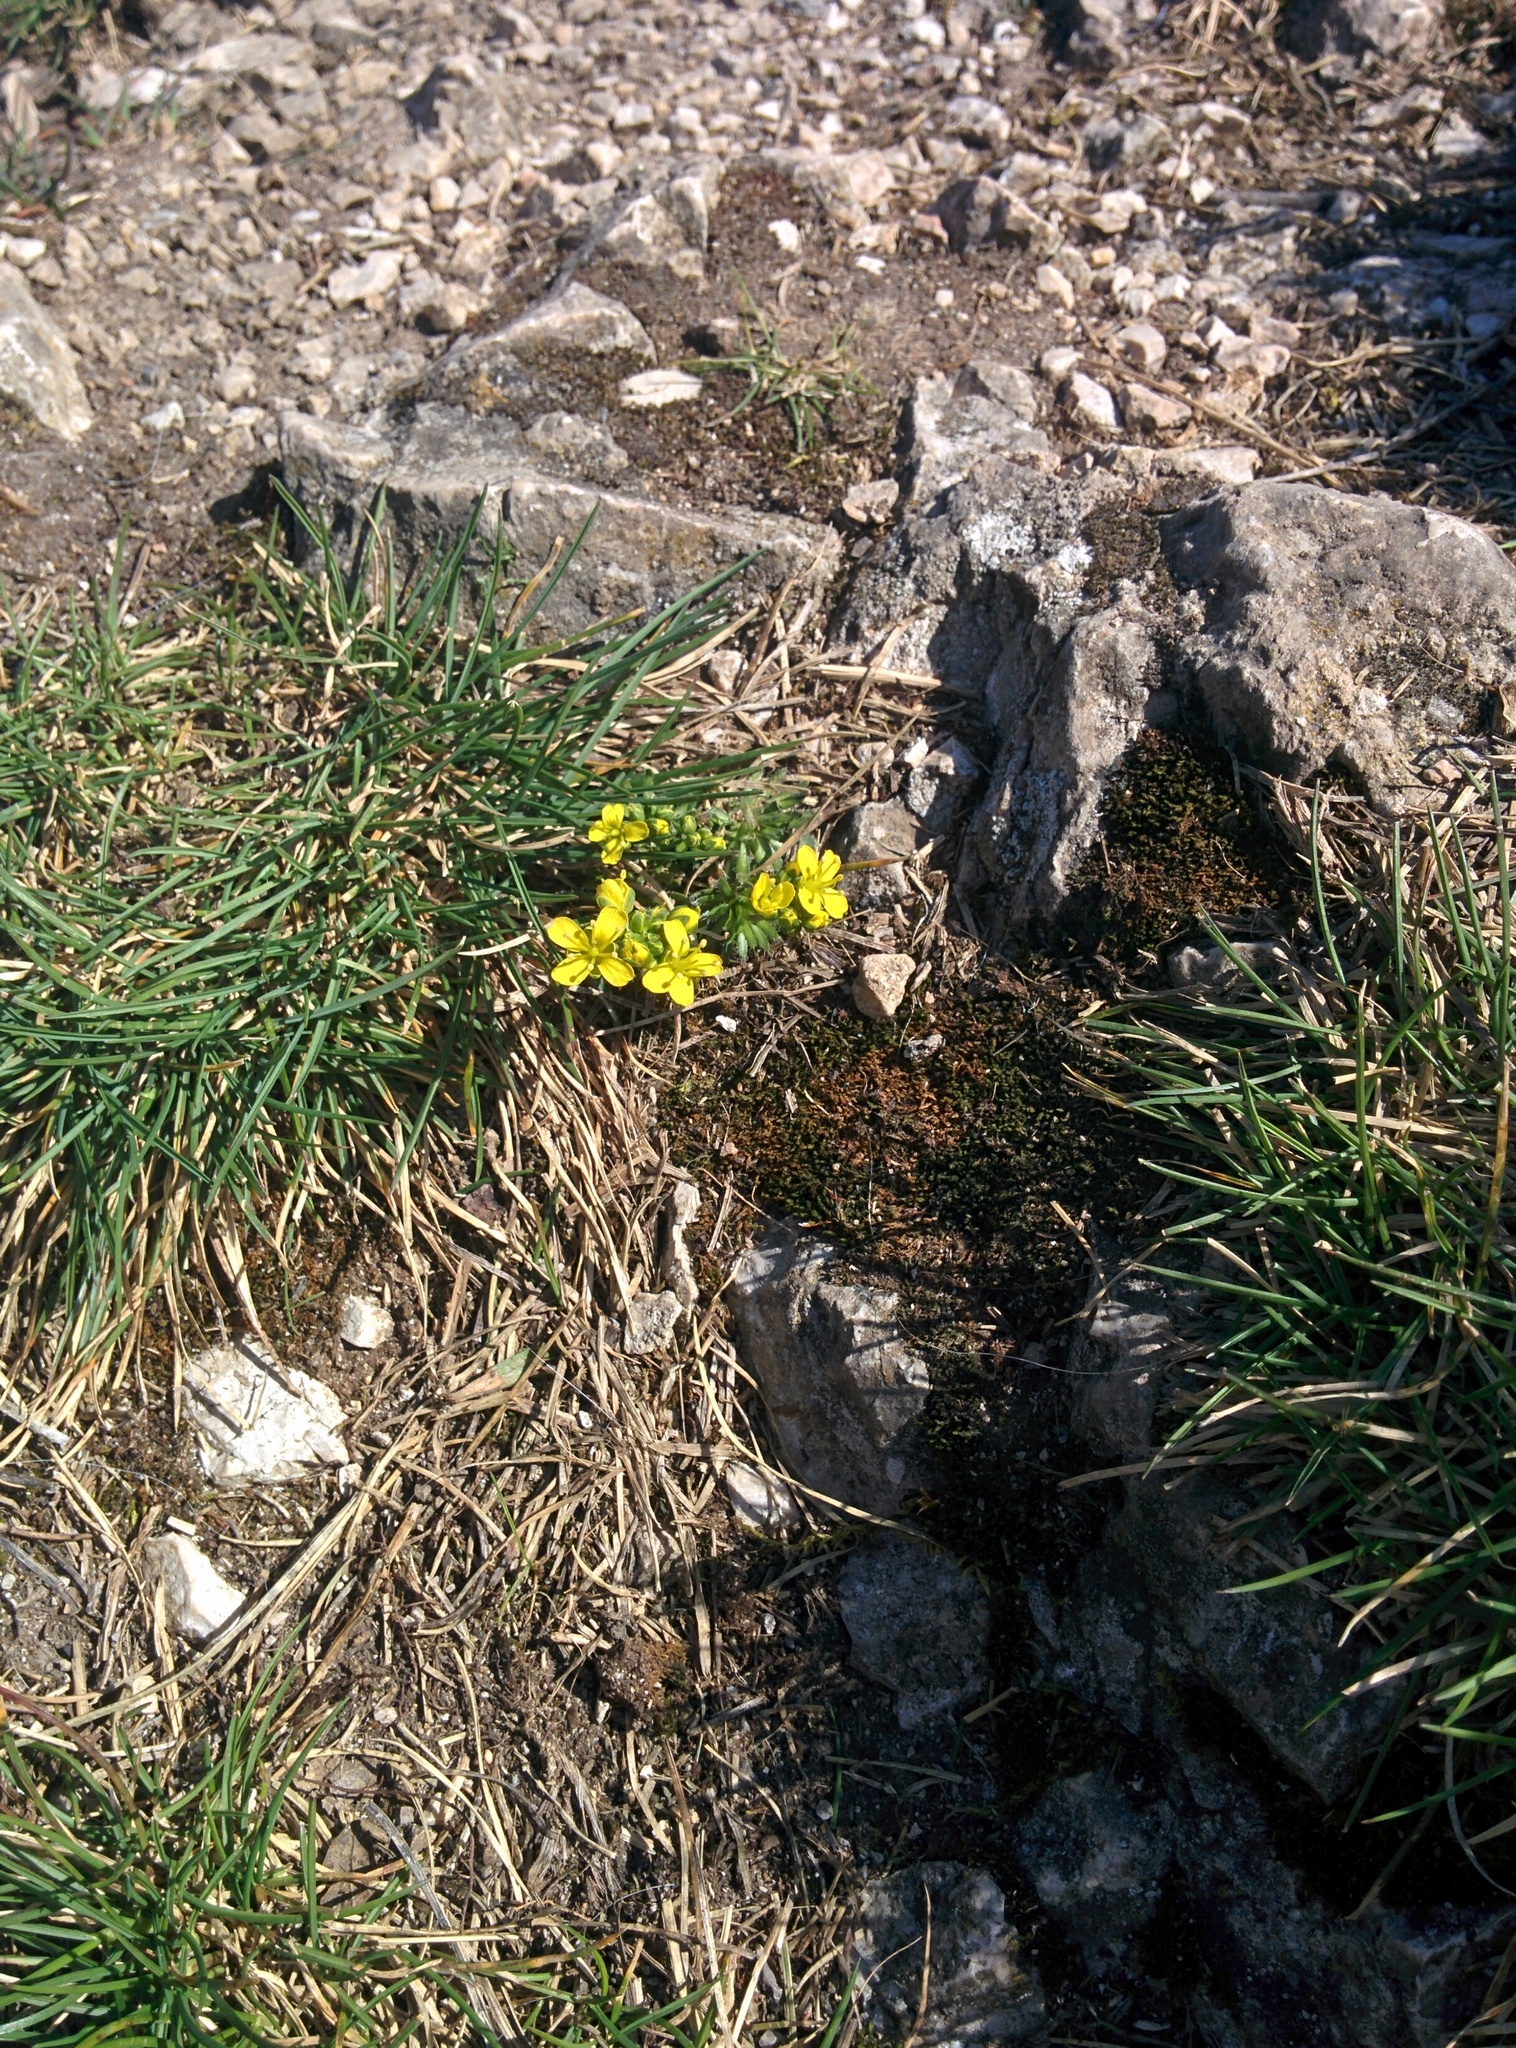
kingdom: Plantae
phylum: Tracheophyta
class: Magnoliopsida
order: Brassicales
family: Brassicaceae
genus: Draba
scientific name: Draba aizoides
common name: Yellow whitlowgrass
